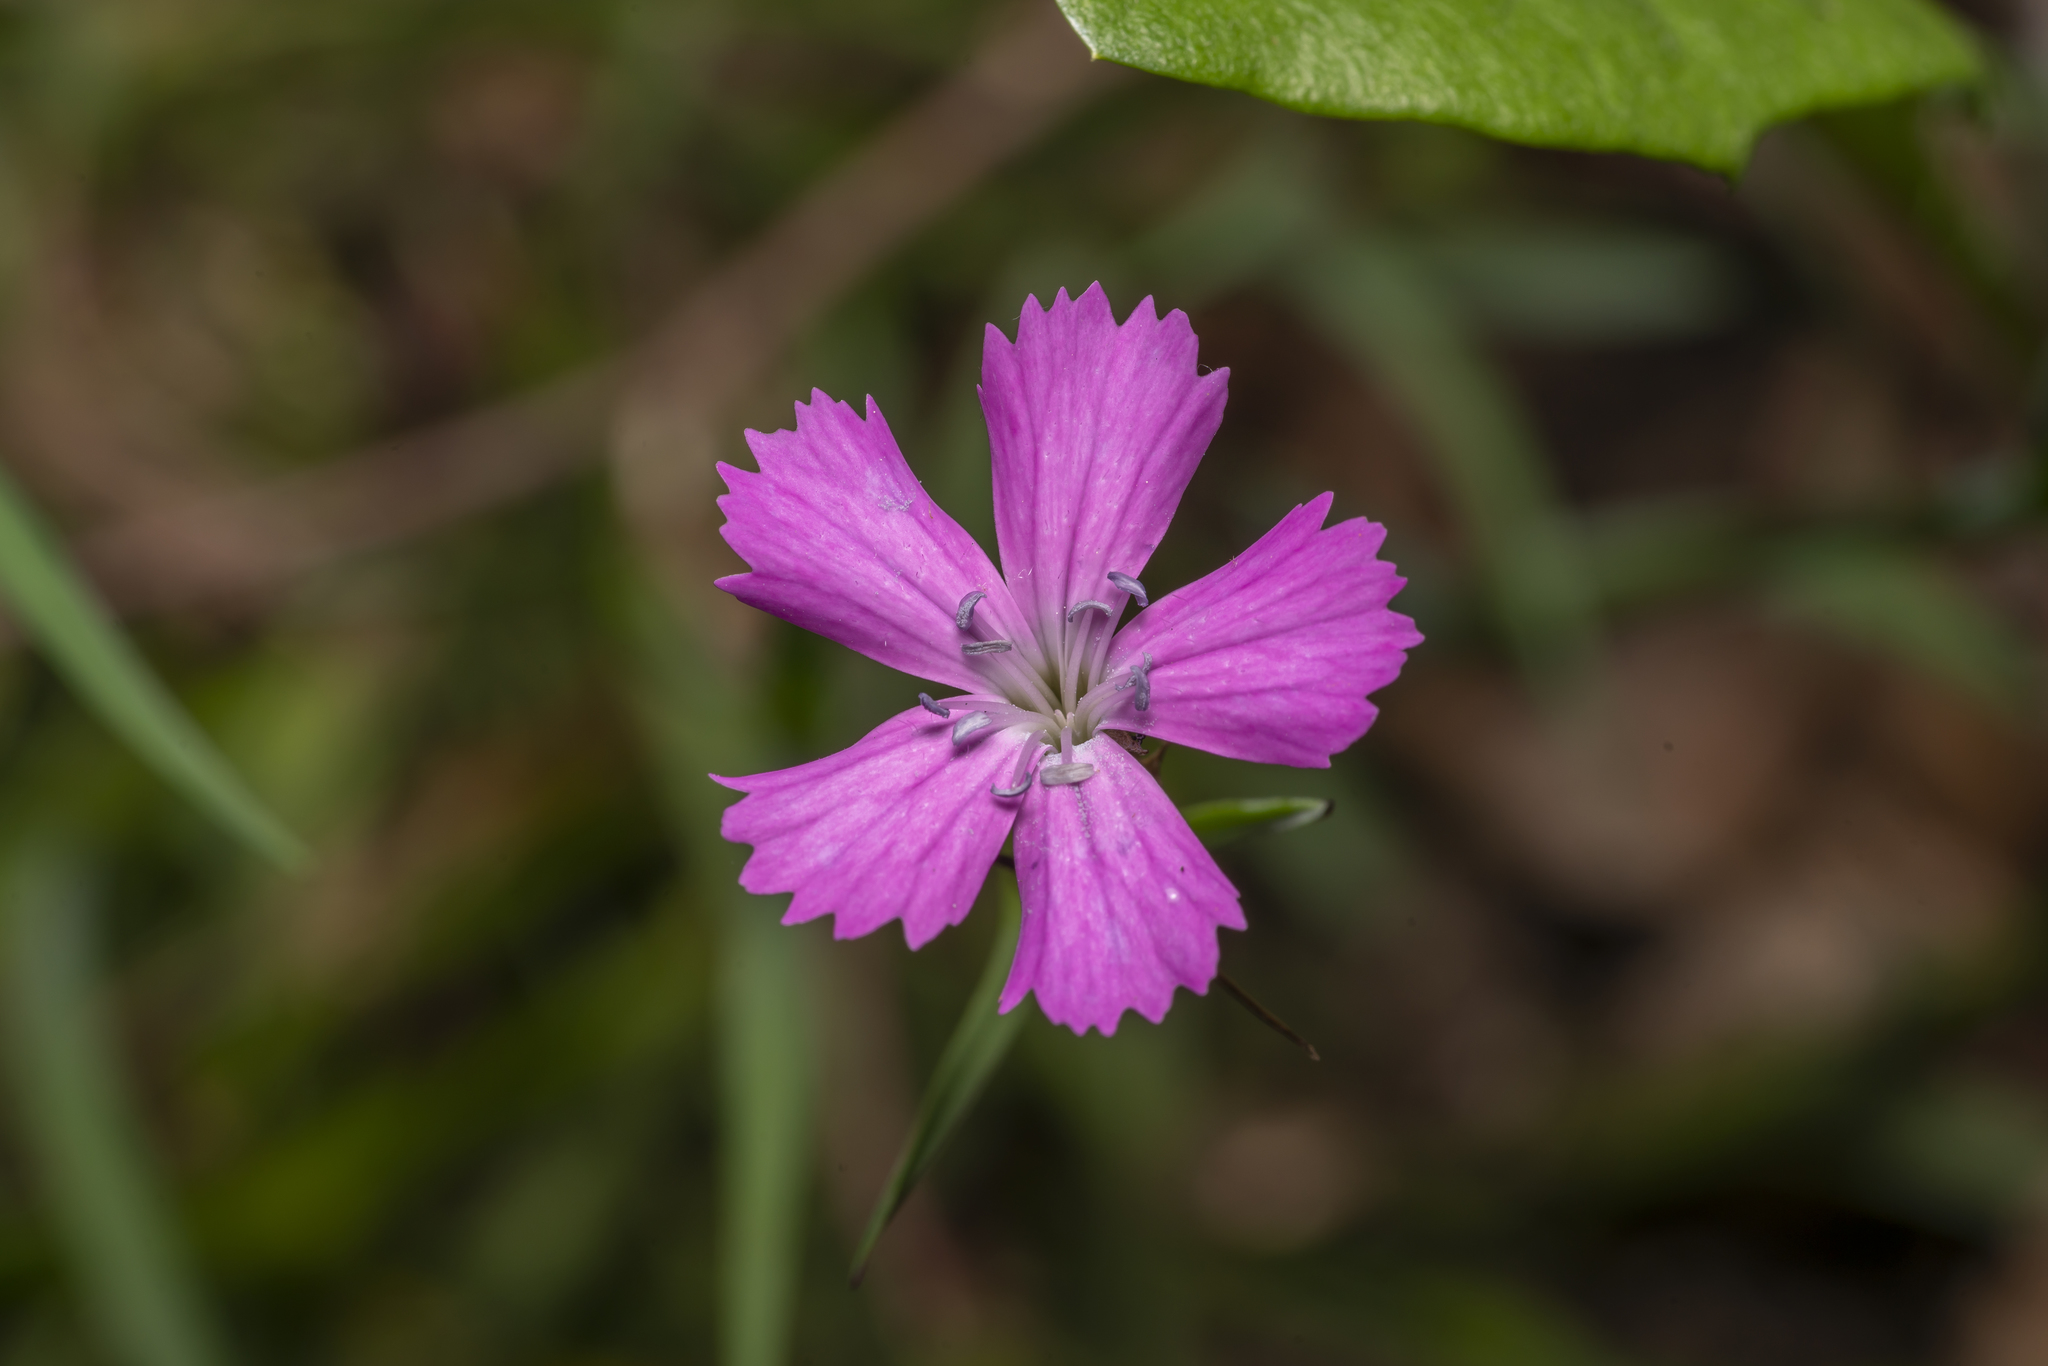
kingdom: Plantae
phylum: Tracheophyta
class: Magnoliopsida
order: Caryophyllales
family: Caryophyllaceae
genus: Dianthus
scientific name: Dianthus carthusianorum
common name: Carthusian pink
